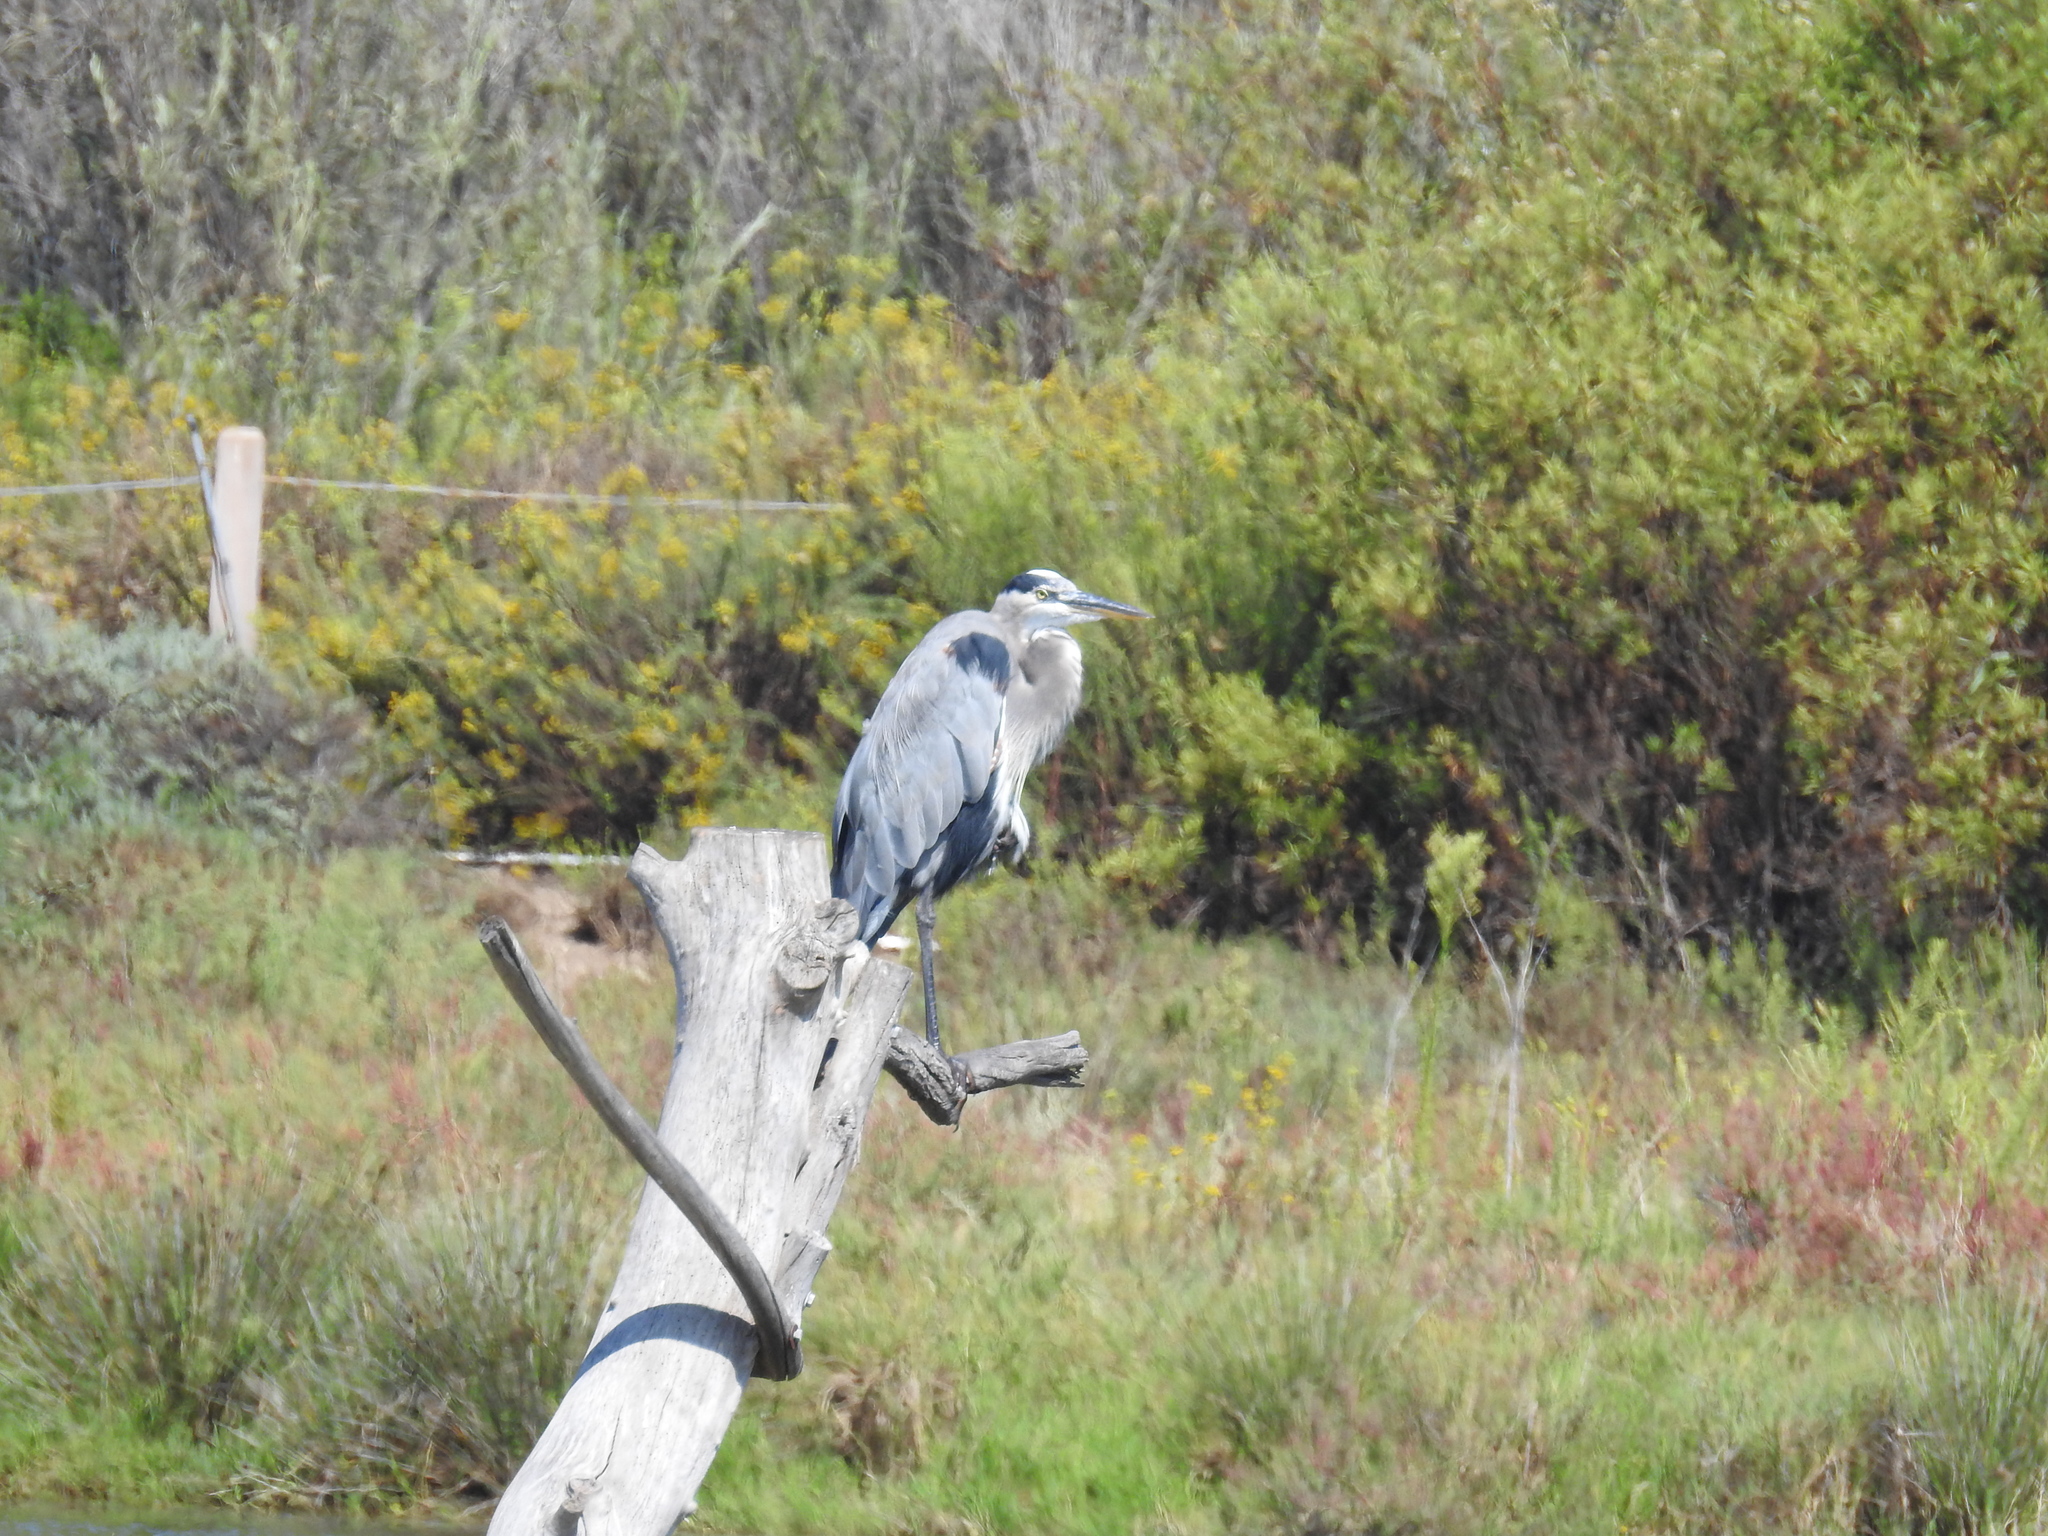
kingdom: Animalia
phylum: Chordata
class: Aves
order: Pelecaniformes
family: Ardeidae
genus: Ardea
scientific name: Ardea herodias
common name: Great blue heron
